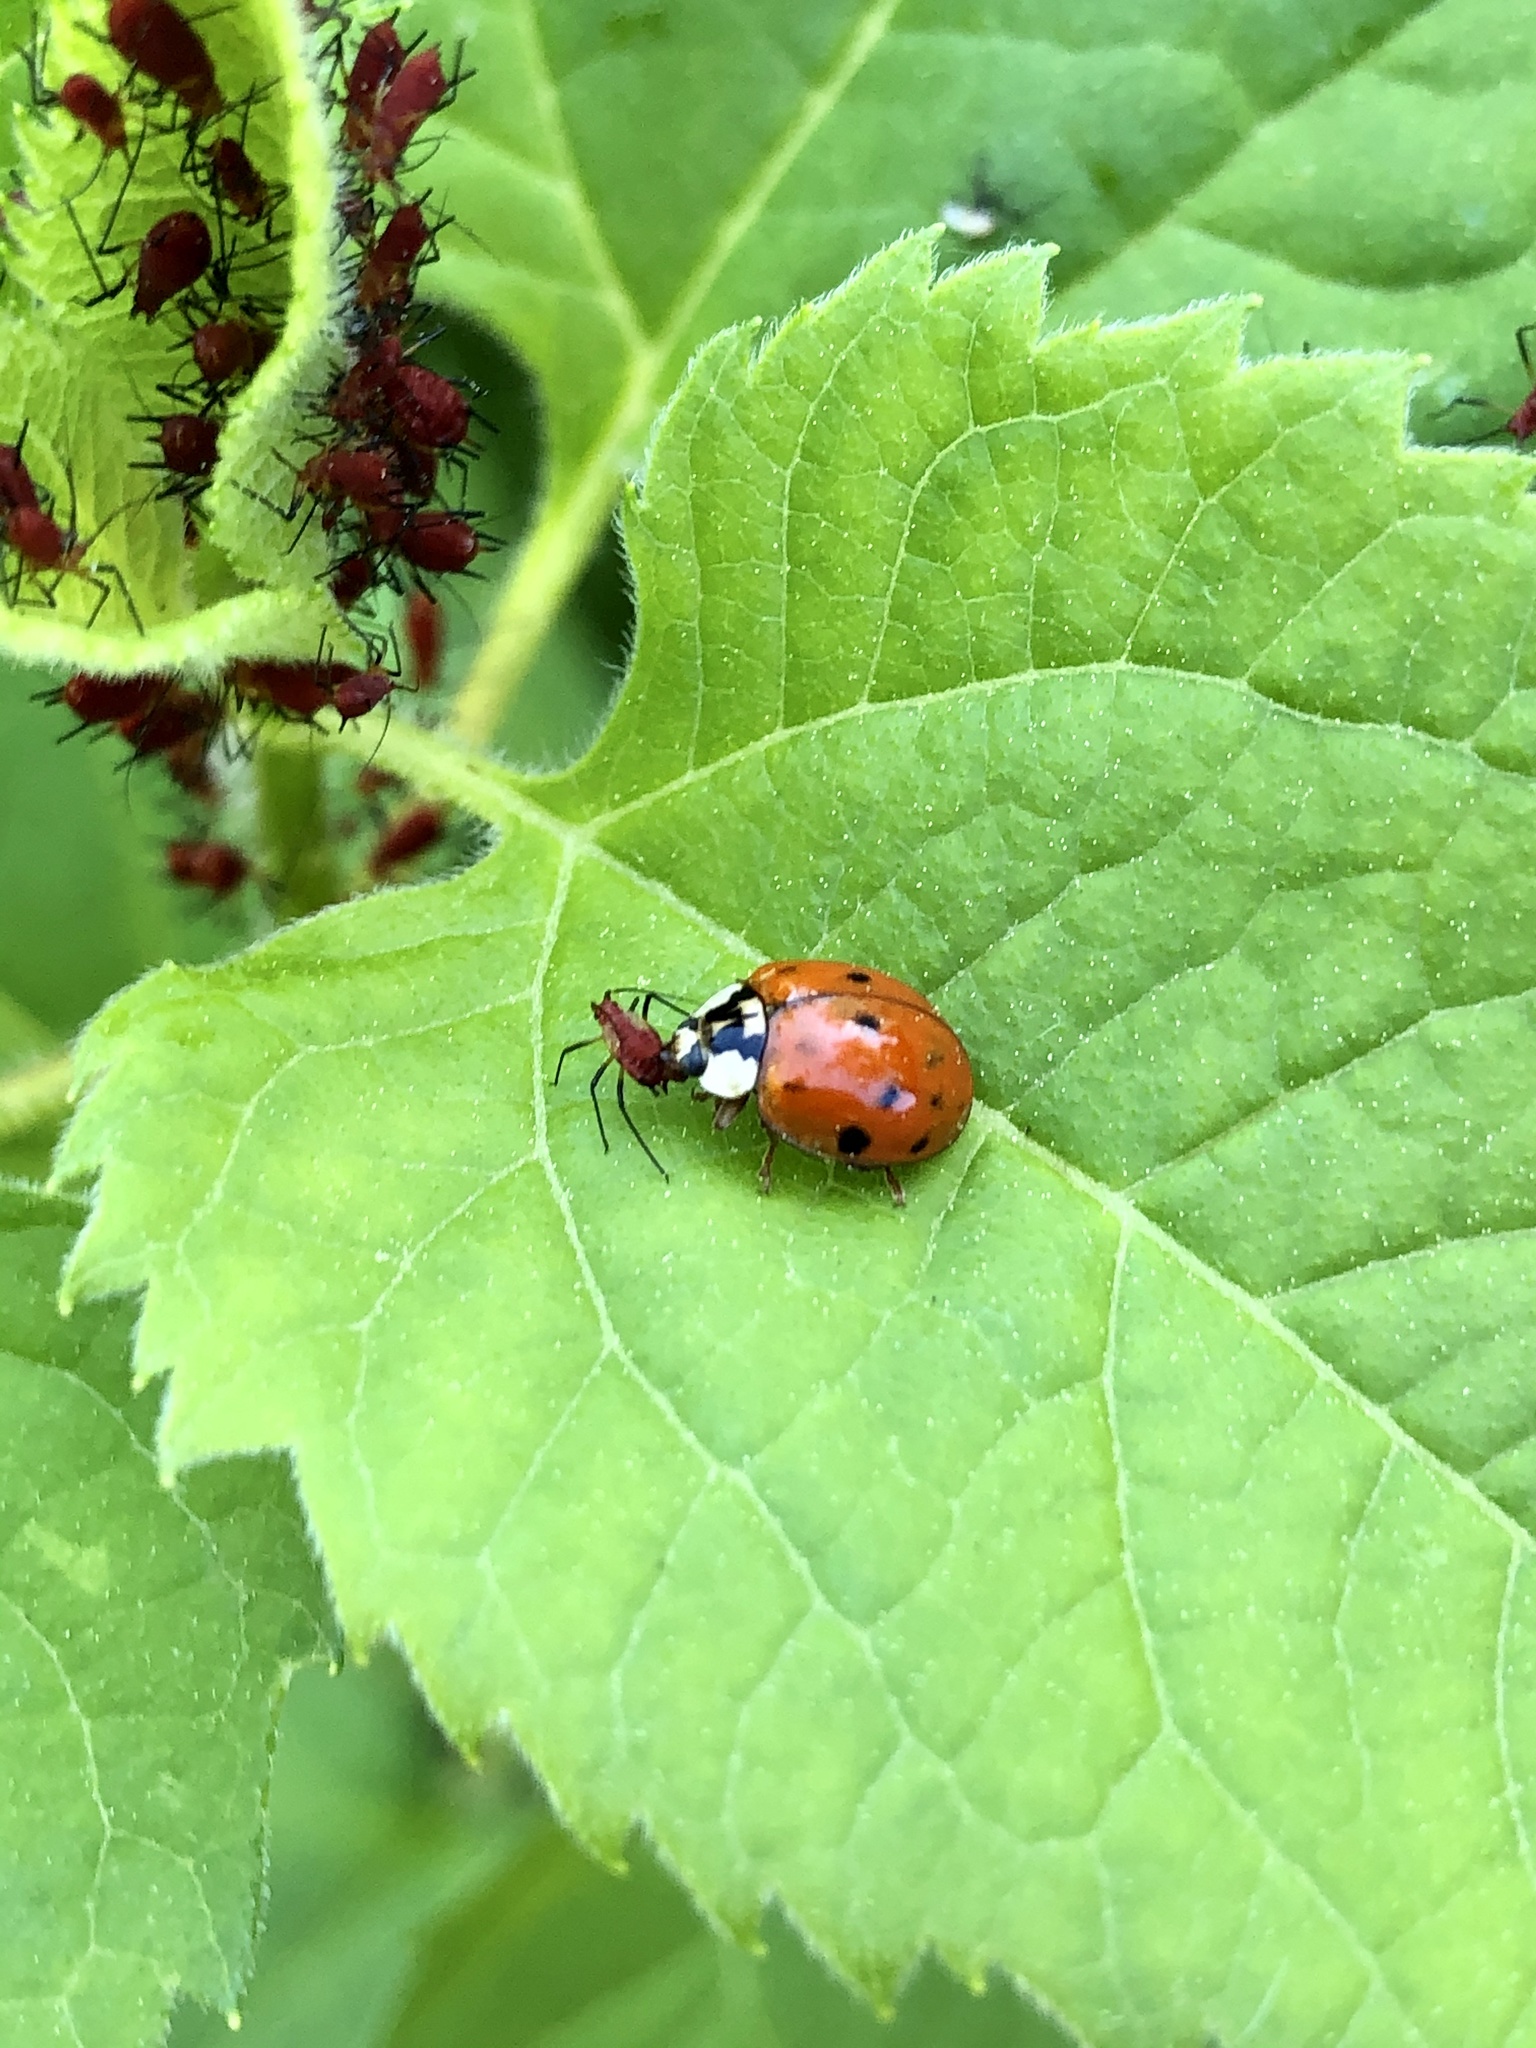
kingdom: Animalia
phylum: Arthropoda
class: Insecta
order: Coleoptera
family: Coccinellidae
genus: Harmonia
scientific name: Harmonia axyridis
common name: Harlequin ladybird
